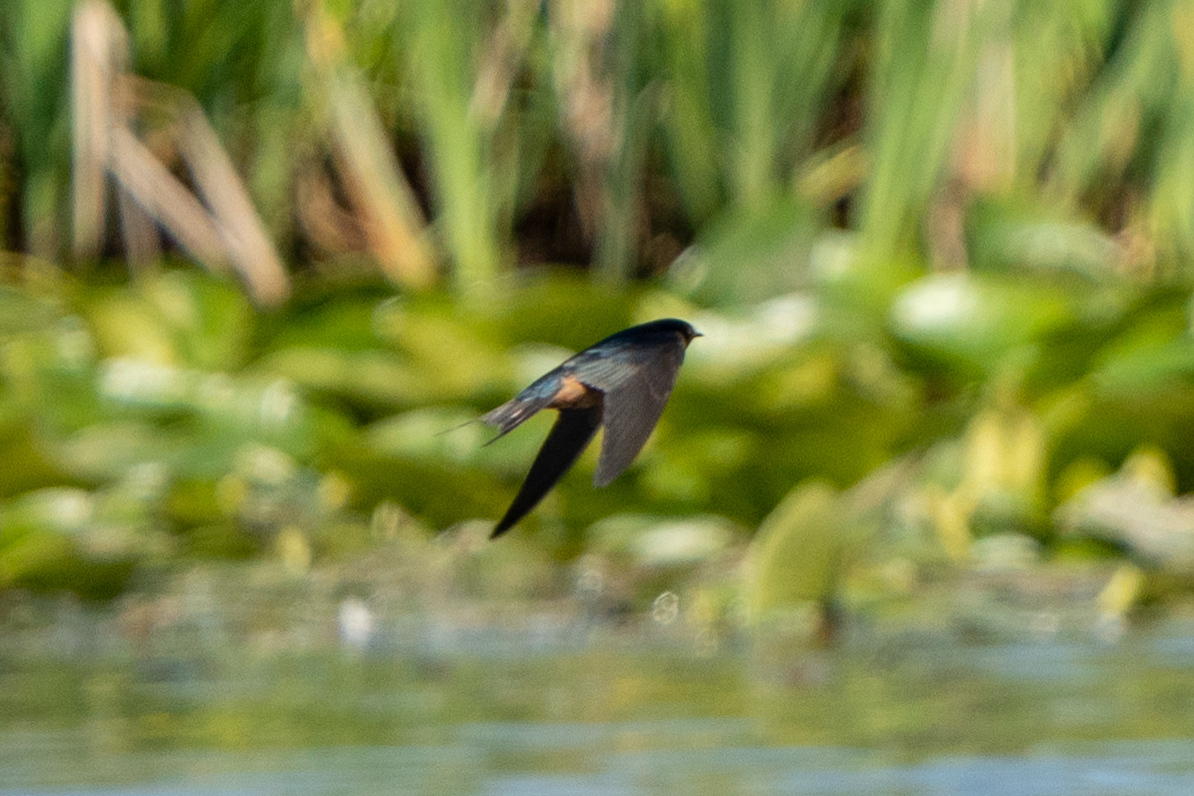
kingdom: Animalia
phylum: Chordata
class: Aves
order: Passeriformes
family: Hirundinidae
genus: Hirundo
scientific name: Hirundo rustica
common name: Barn swallow
